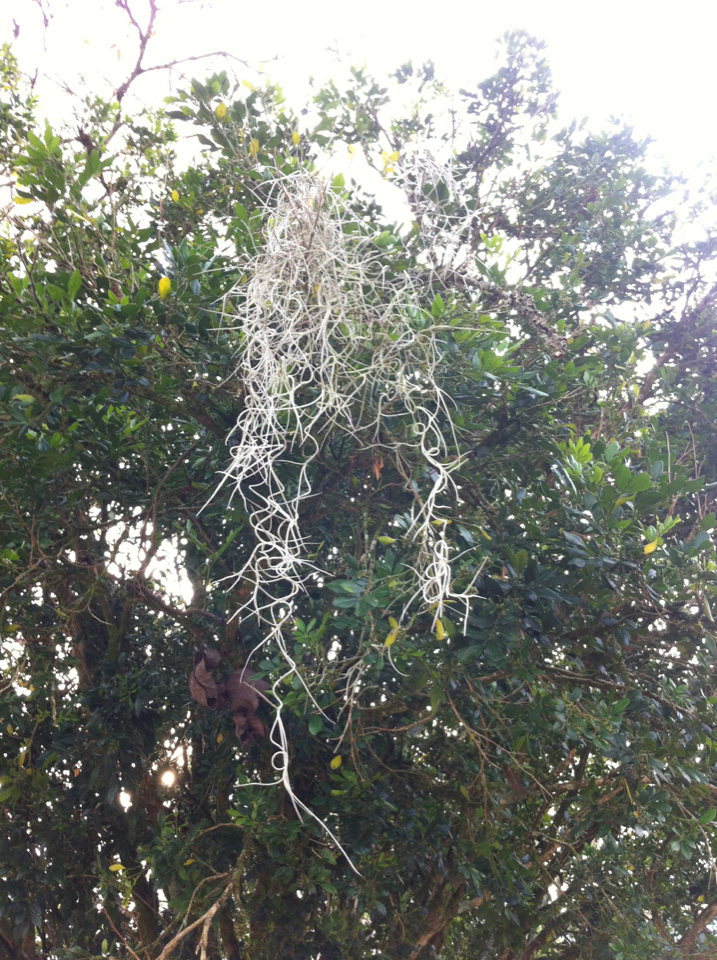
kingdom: Plantae
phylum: Tracheophyta
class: Liliopsida
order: Poales
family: Bromeliaceae
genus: Tillandsia
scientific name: Tillandsia usneoides
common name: Spanish moss
